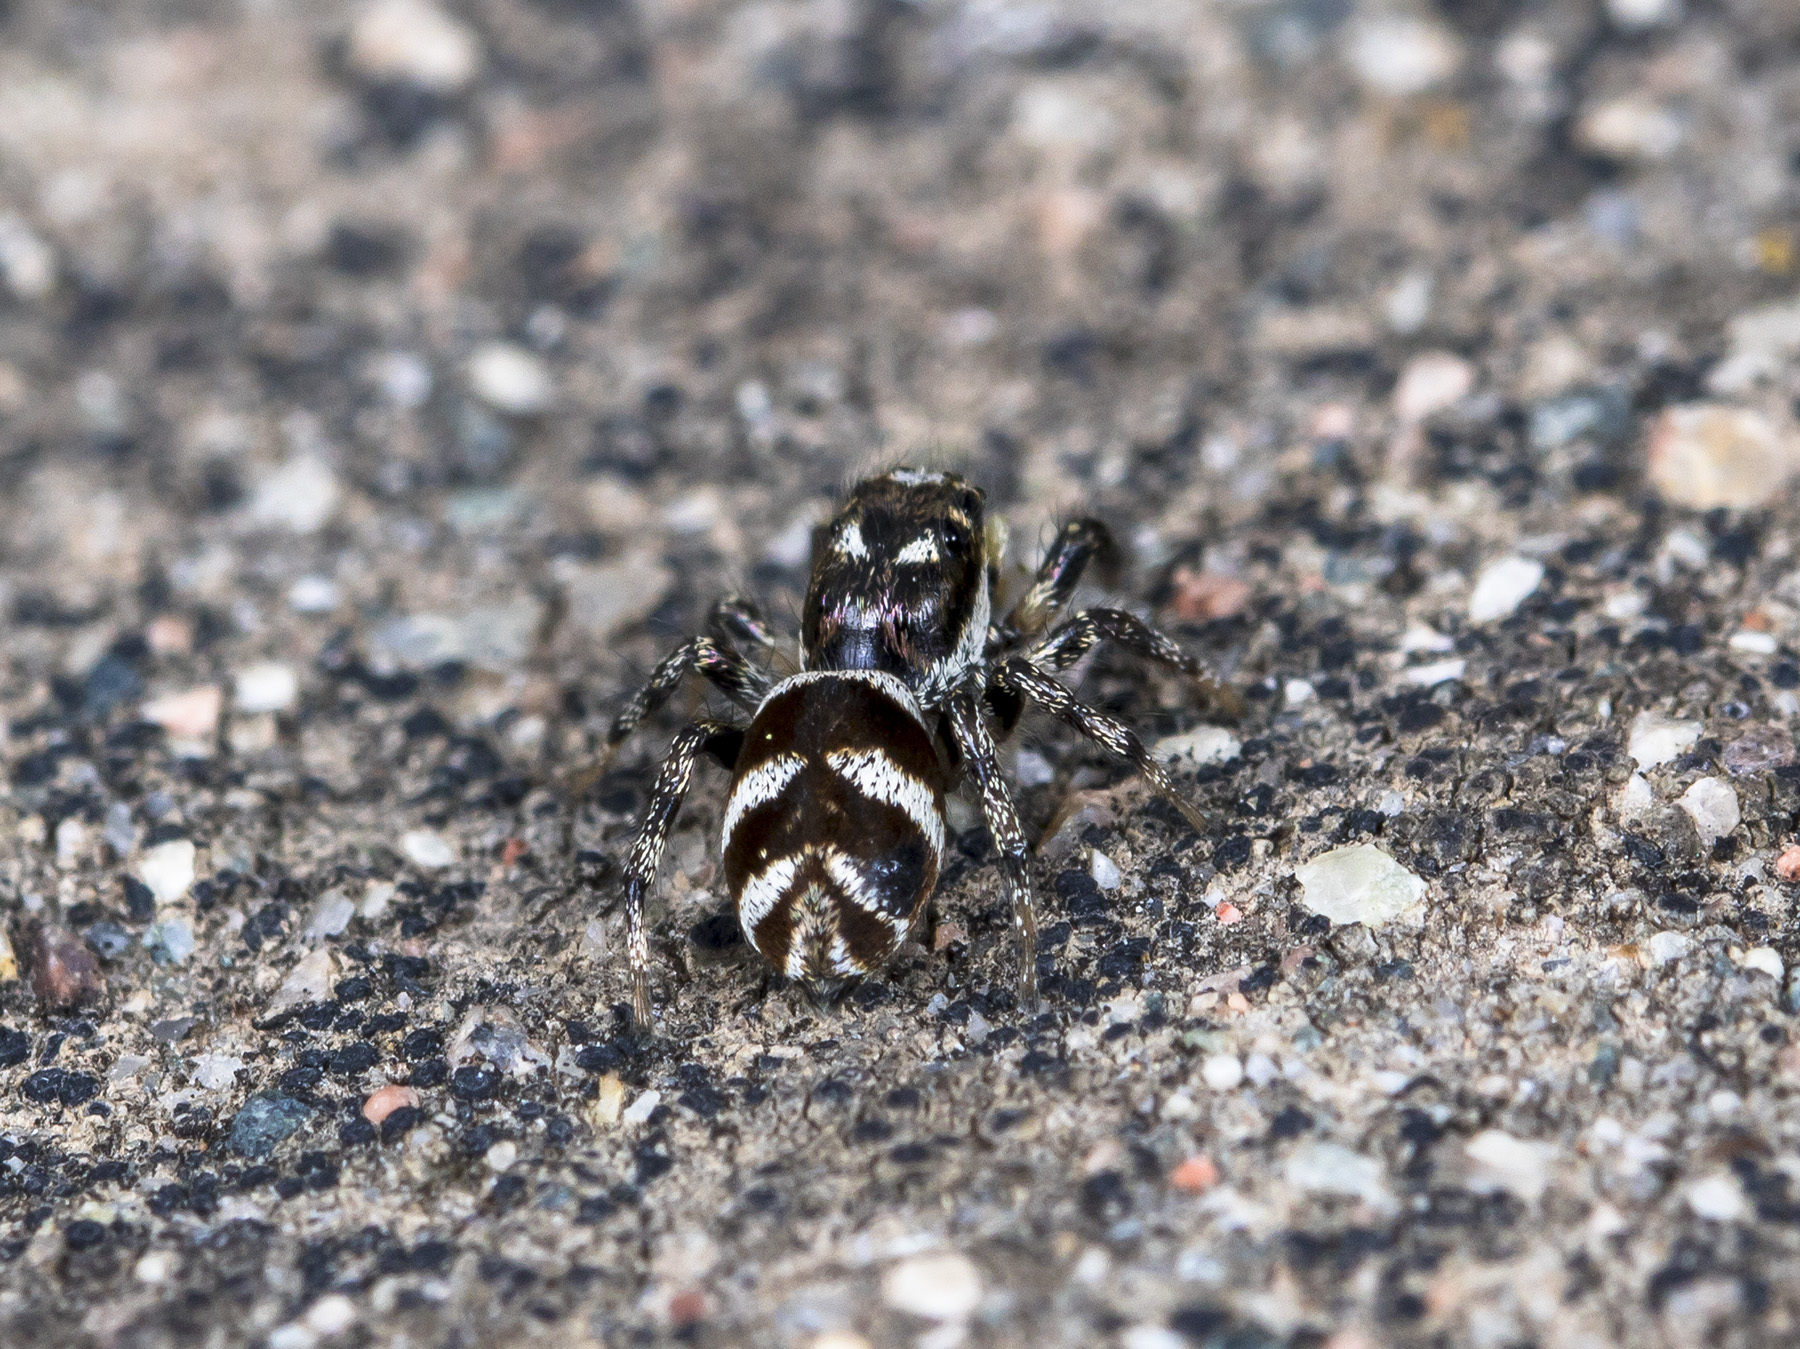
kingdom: Animalia
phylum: Arthropoda
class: Arachnida
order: Araneae
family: Salticidae
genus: Salticus
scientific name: Salticus scenicus
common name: Zebra jumper
